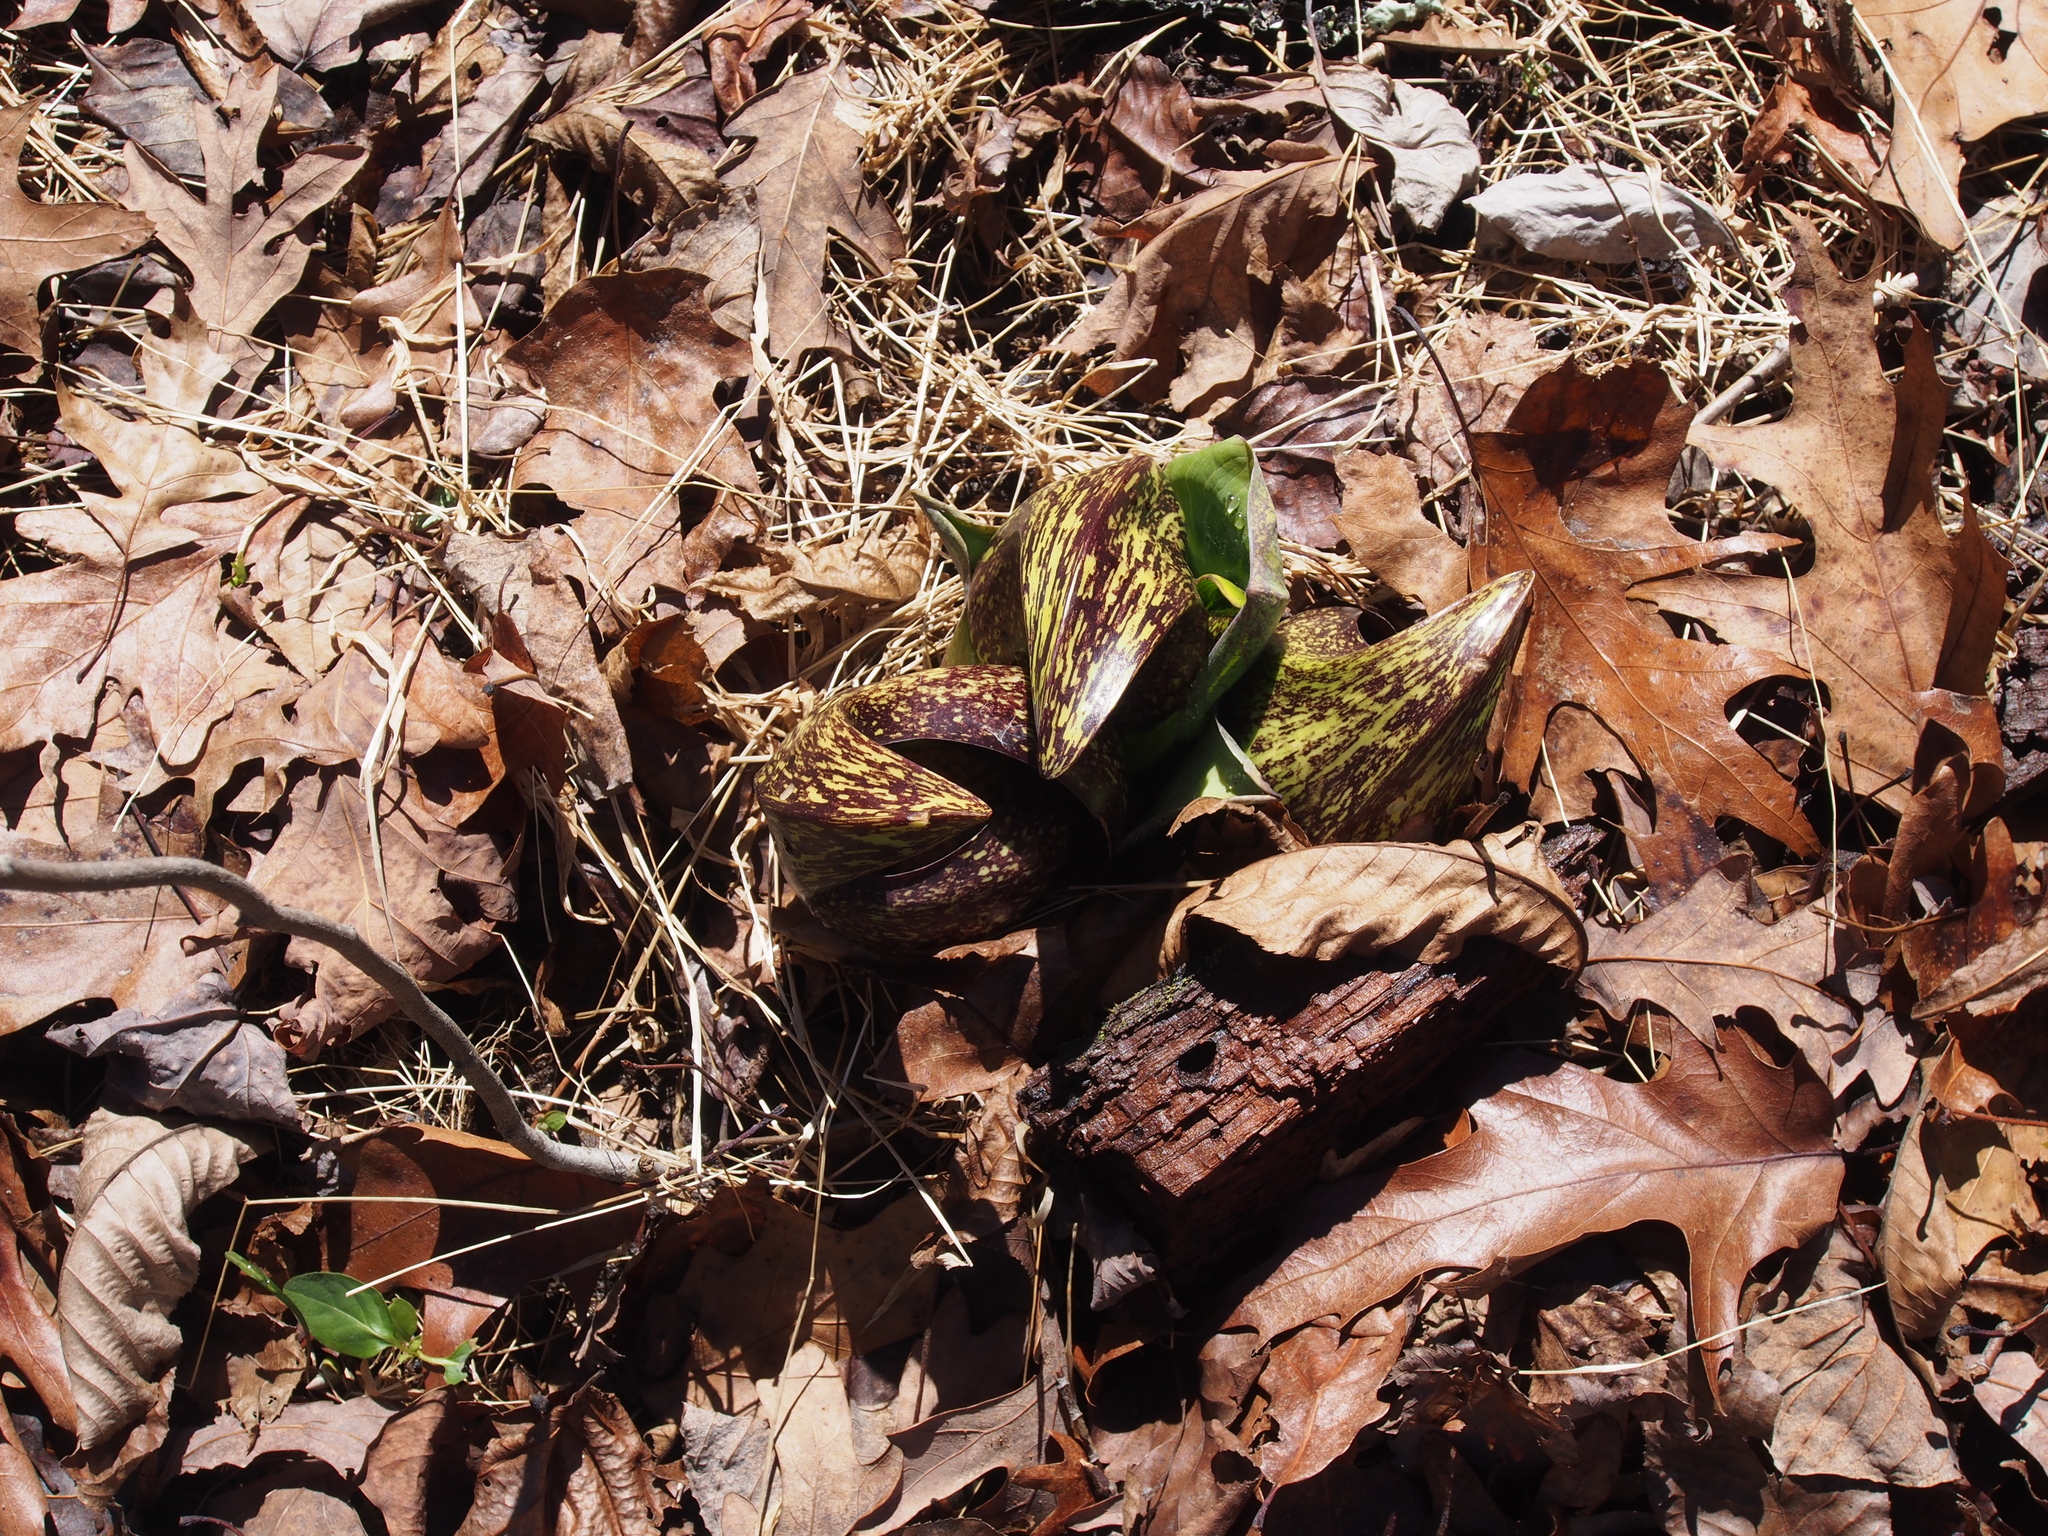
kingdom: Plantae
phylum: Tracheophyta
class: Liliopsida
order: Alismatales
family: Araceae
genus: Symplocarpus
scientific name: Symplocarpus foetidus
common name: Eastern skunk cabbage
